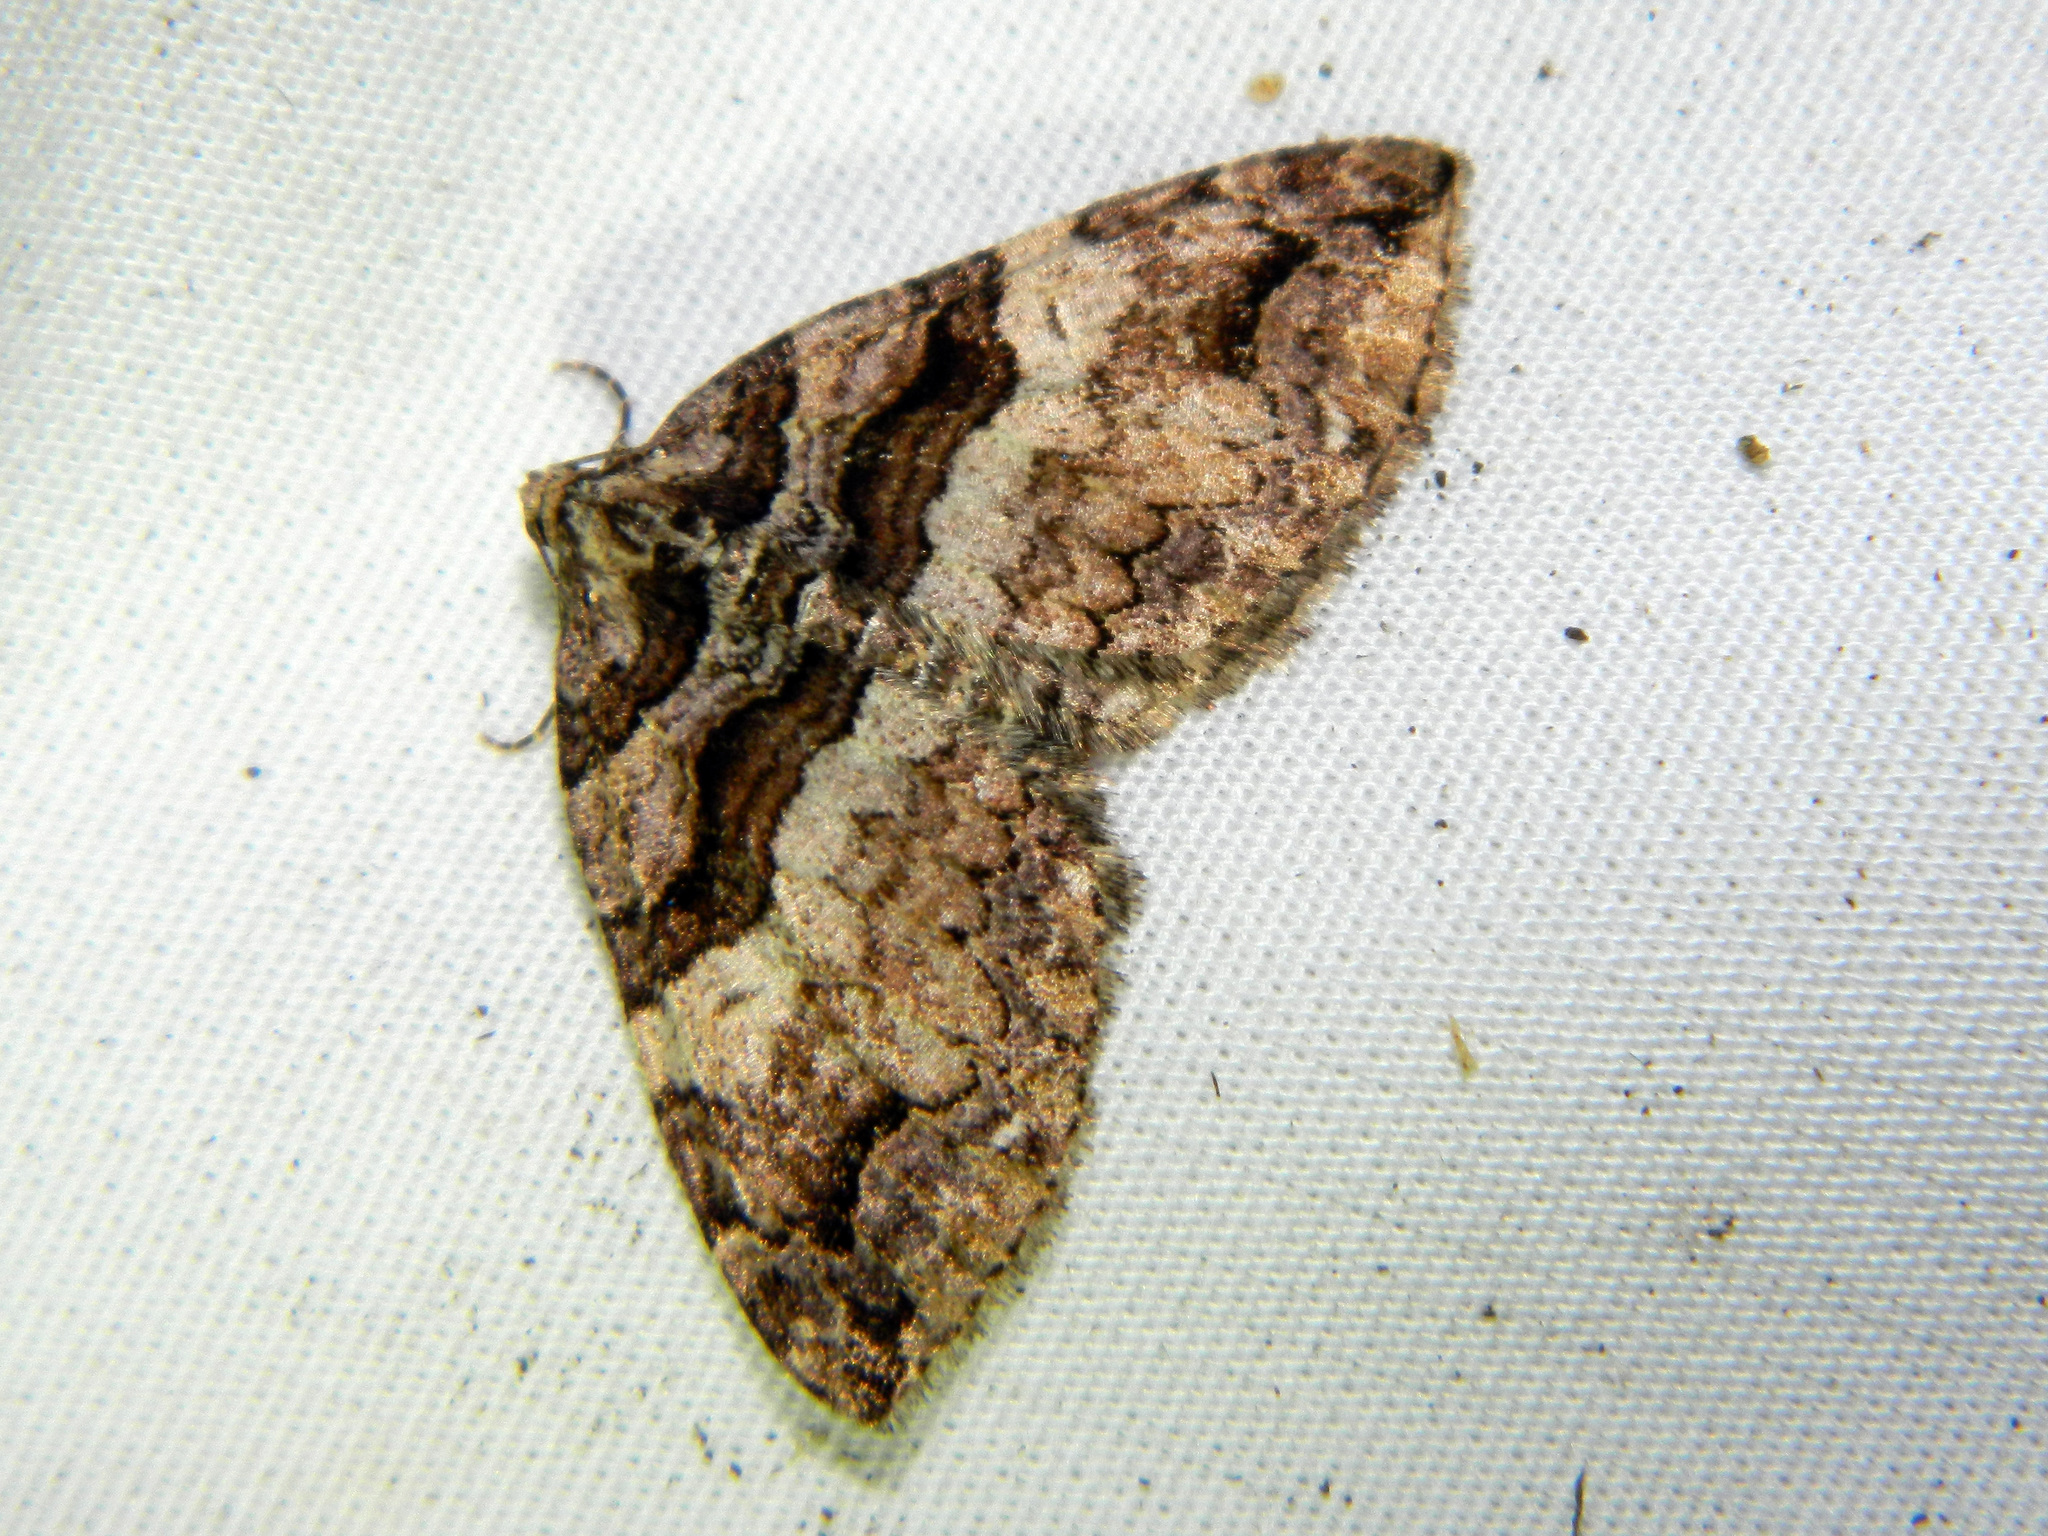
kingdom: Animalia
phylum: Arthropoda
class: Insecta
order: Lepidoptera
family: Geometridae
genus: Anticlea
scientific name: Anticlea vasiliata
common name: Variable carpet
